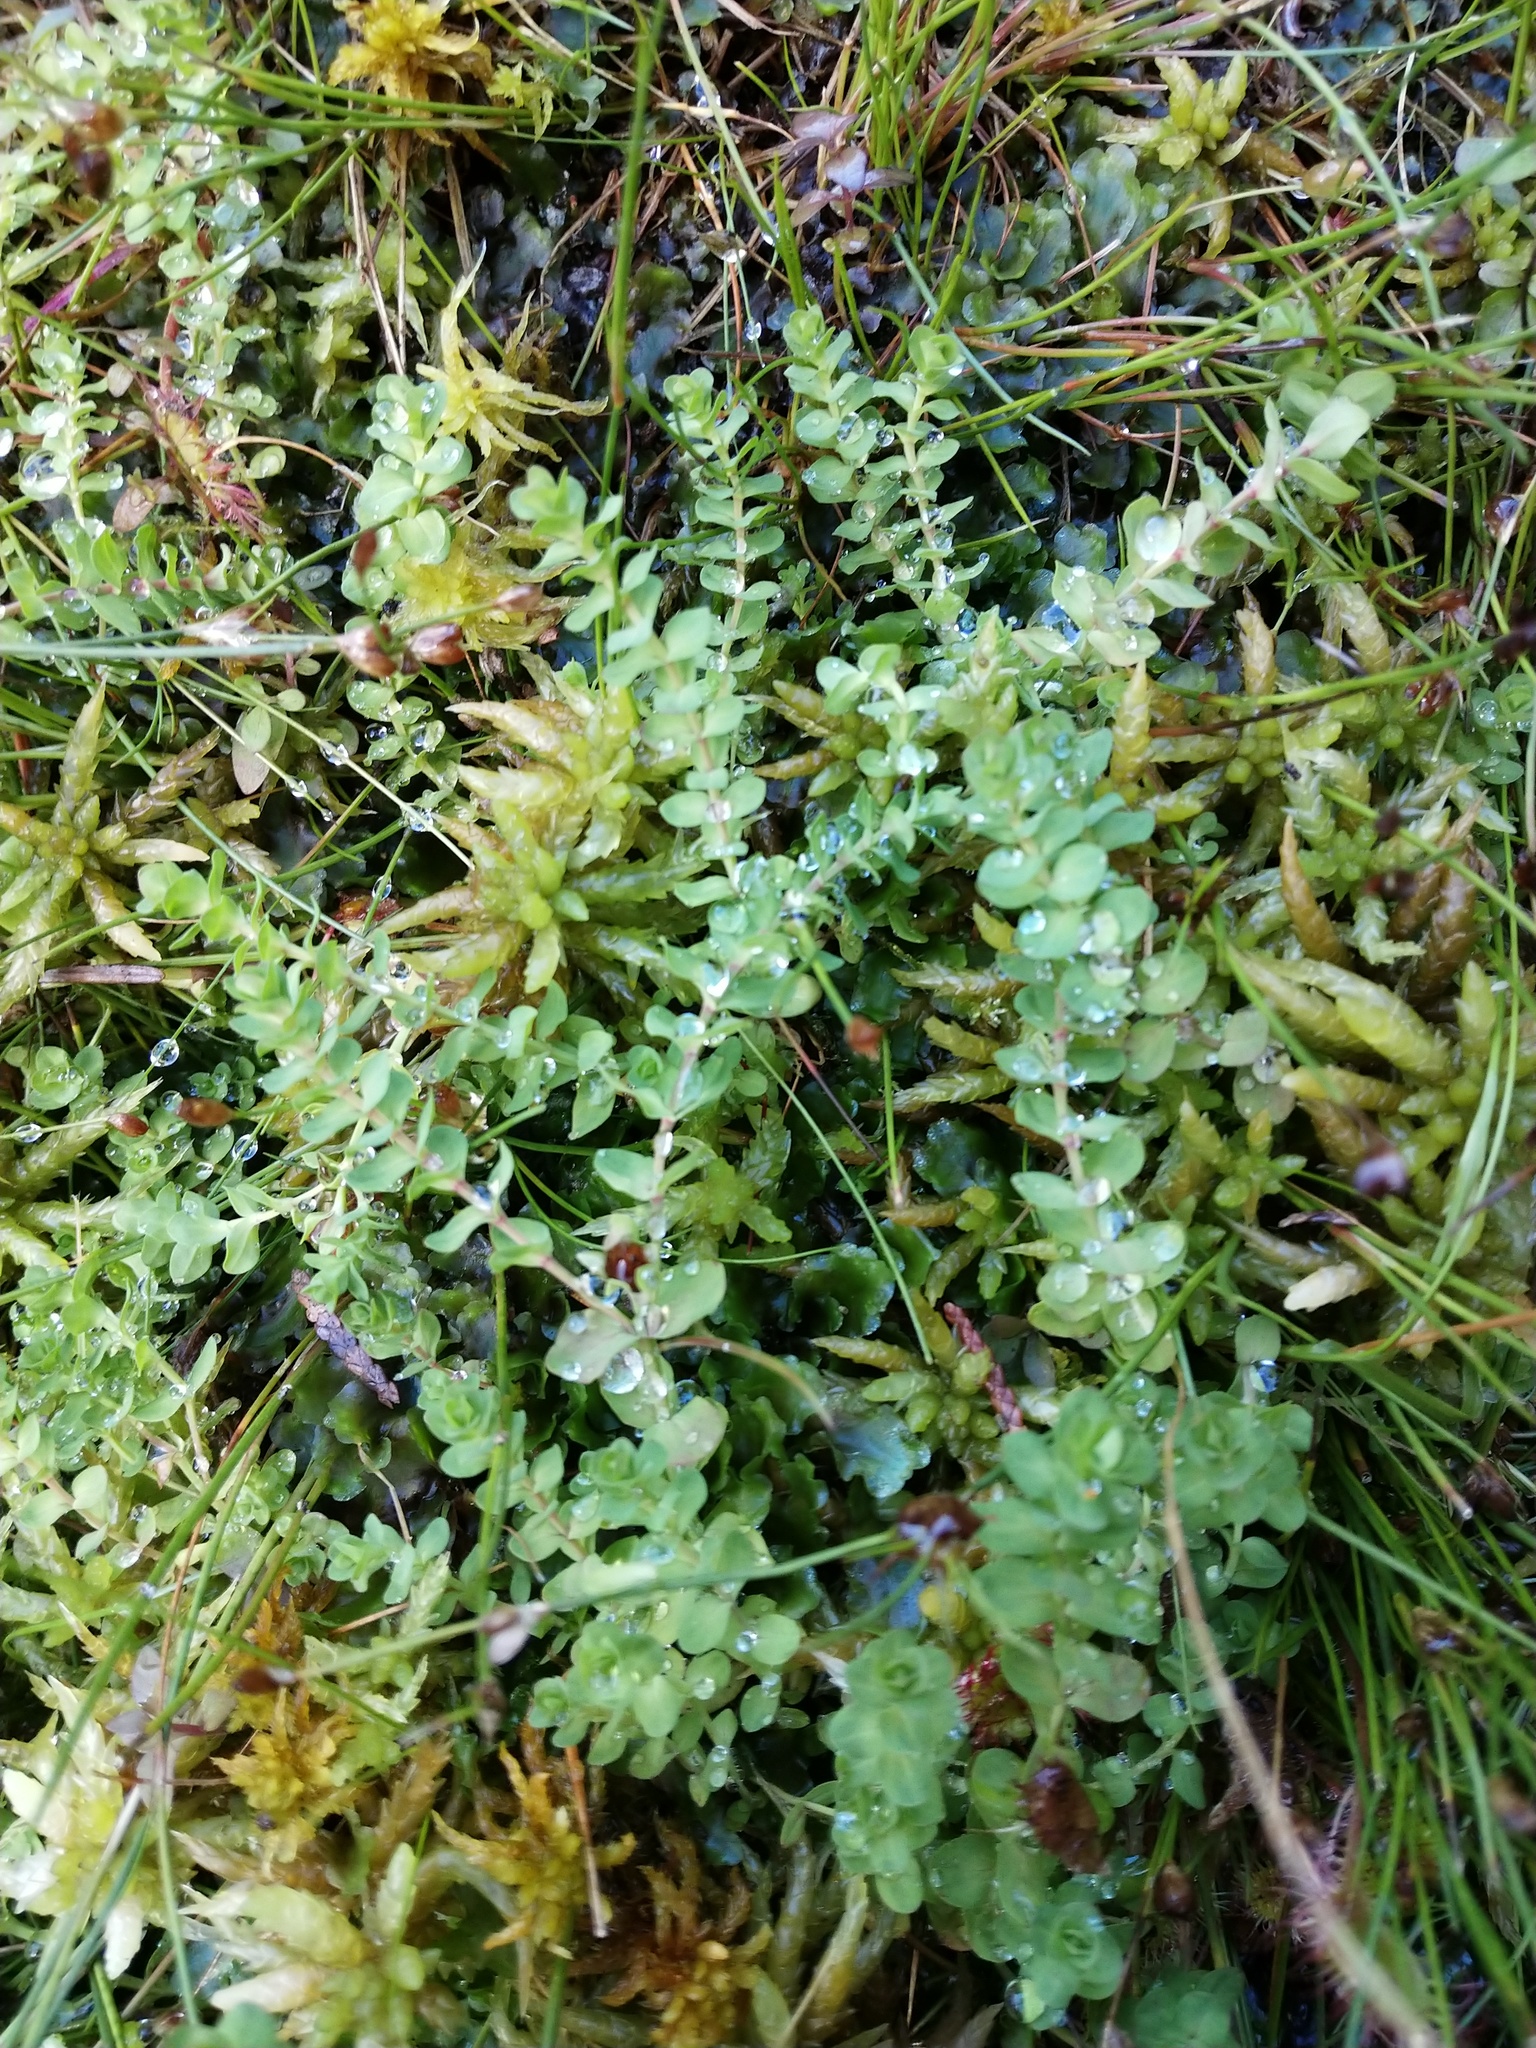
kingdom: Plantae
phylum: Tracheophyta
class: Magnoliopsida
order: Malpighiales
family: Hypericaceae
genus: Hypericum
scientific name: Hypericum anagalloides
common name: Bog st. john's-wort
